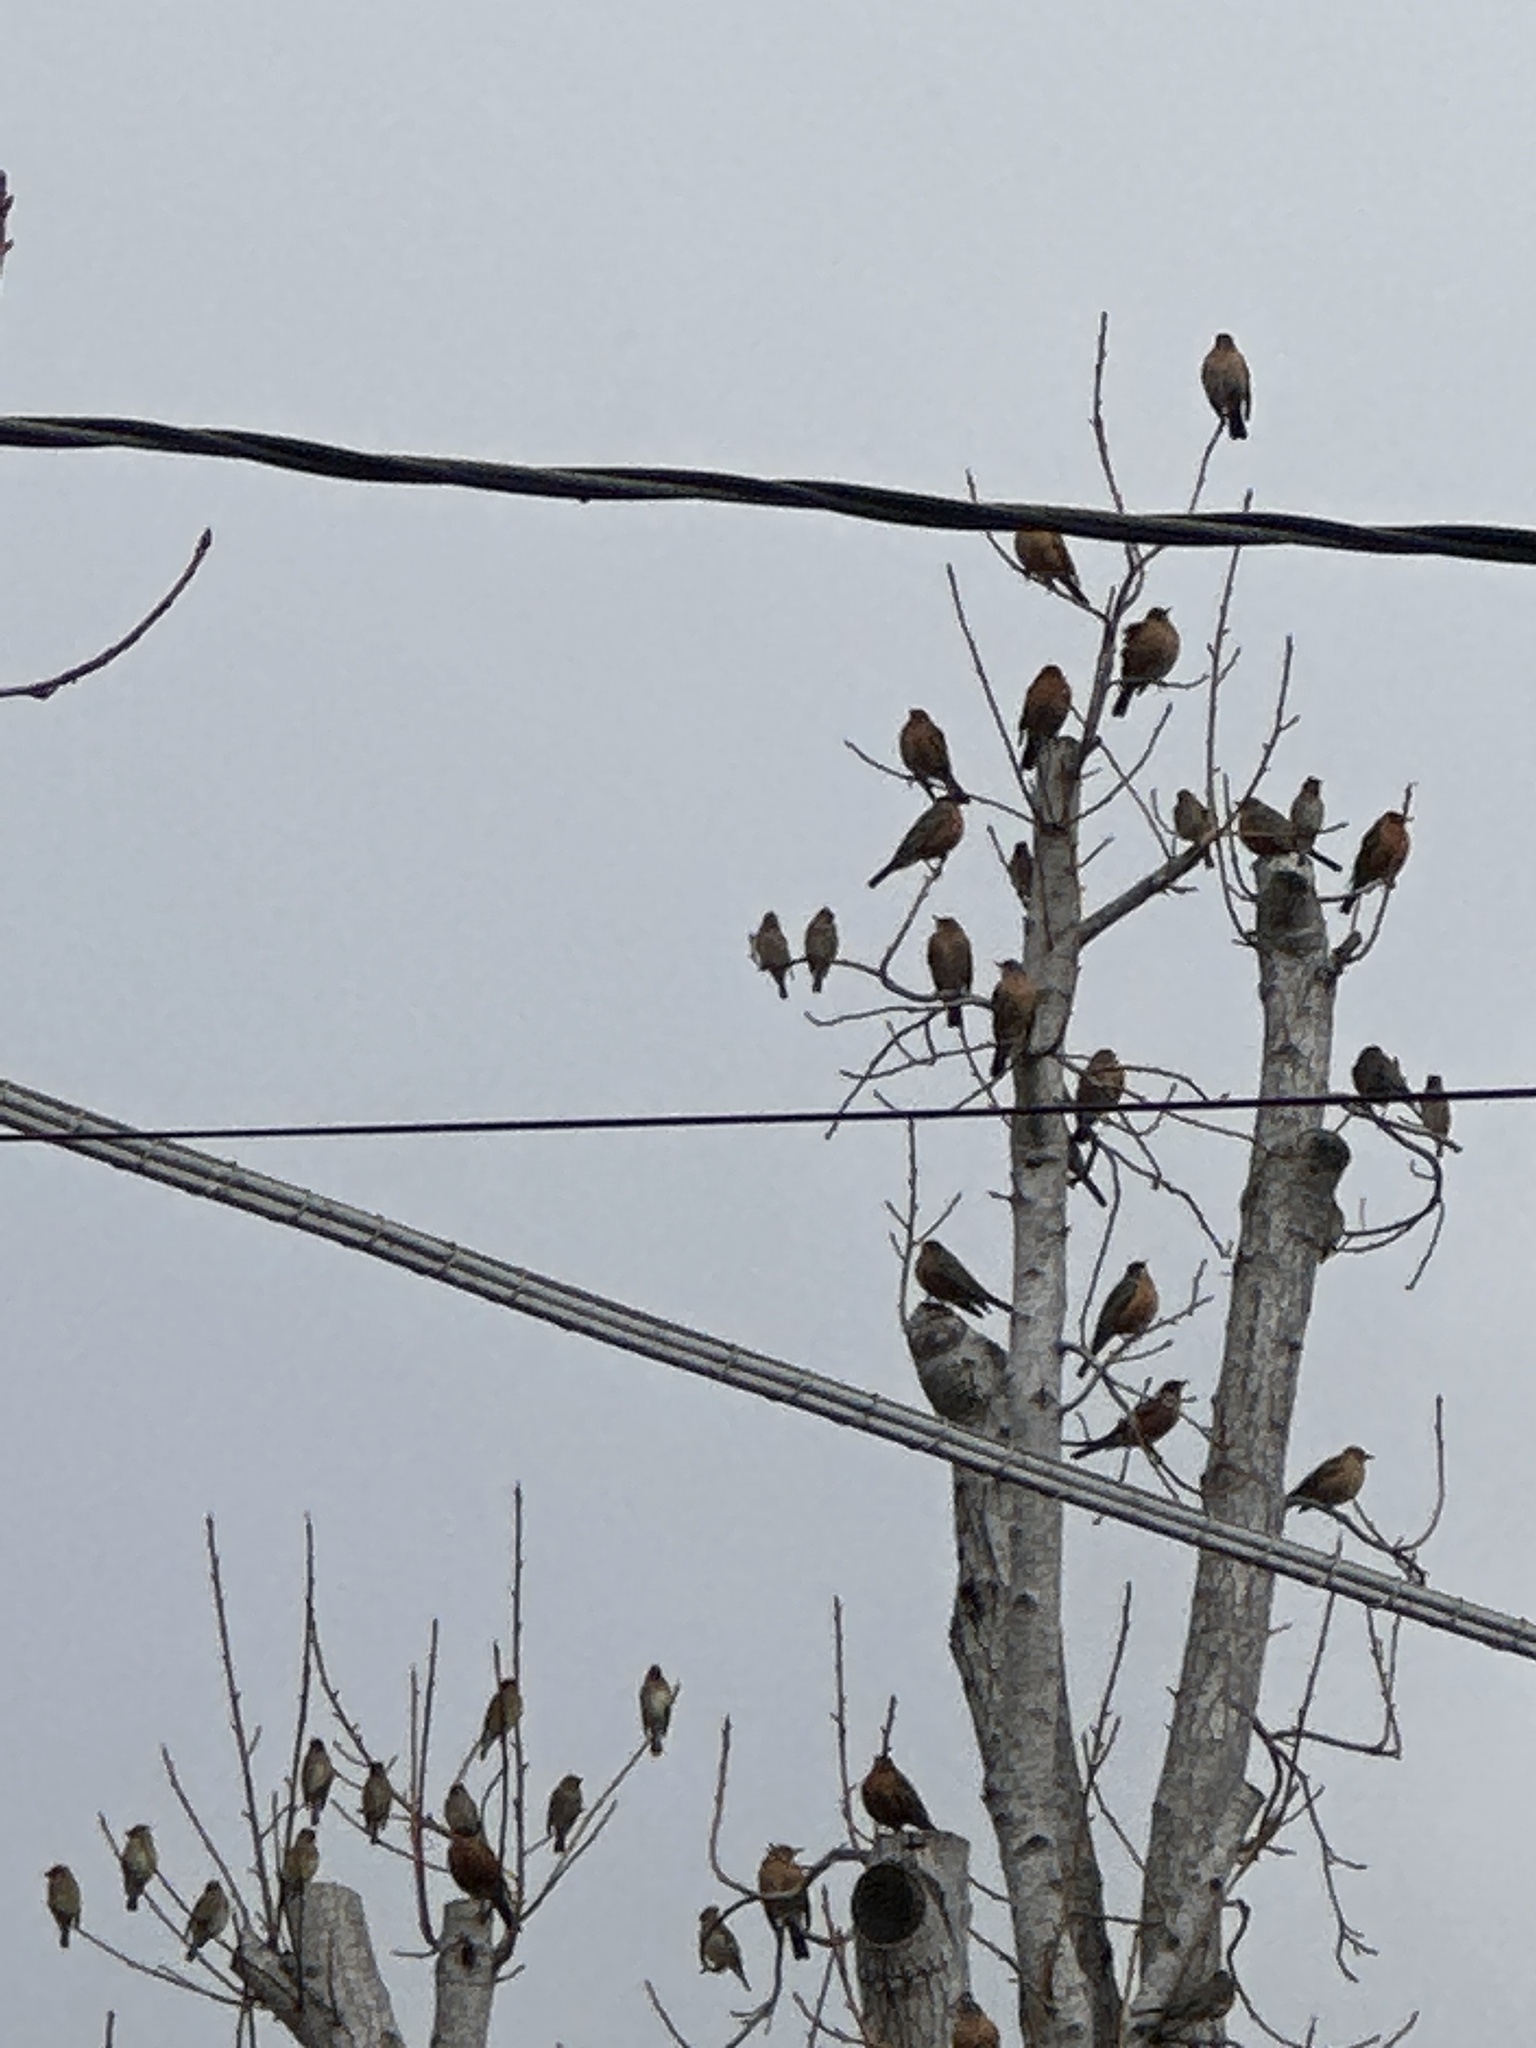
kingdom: Animalia
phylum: Chordata
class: Aves
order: Passeriformes
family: Turdidae
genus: Turdus
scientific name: Turdus migratorius
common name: American robin
